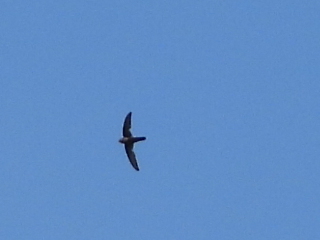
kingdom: Animalia
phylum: Chordata
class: Aves
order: Apodiformes
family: Apodidae
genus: Apus
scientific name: Apus nipalensis
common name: House swift
